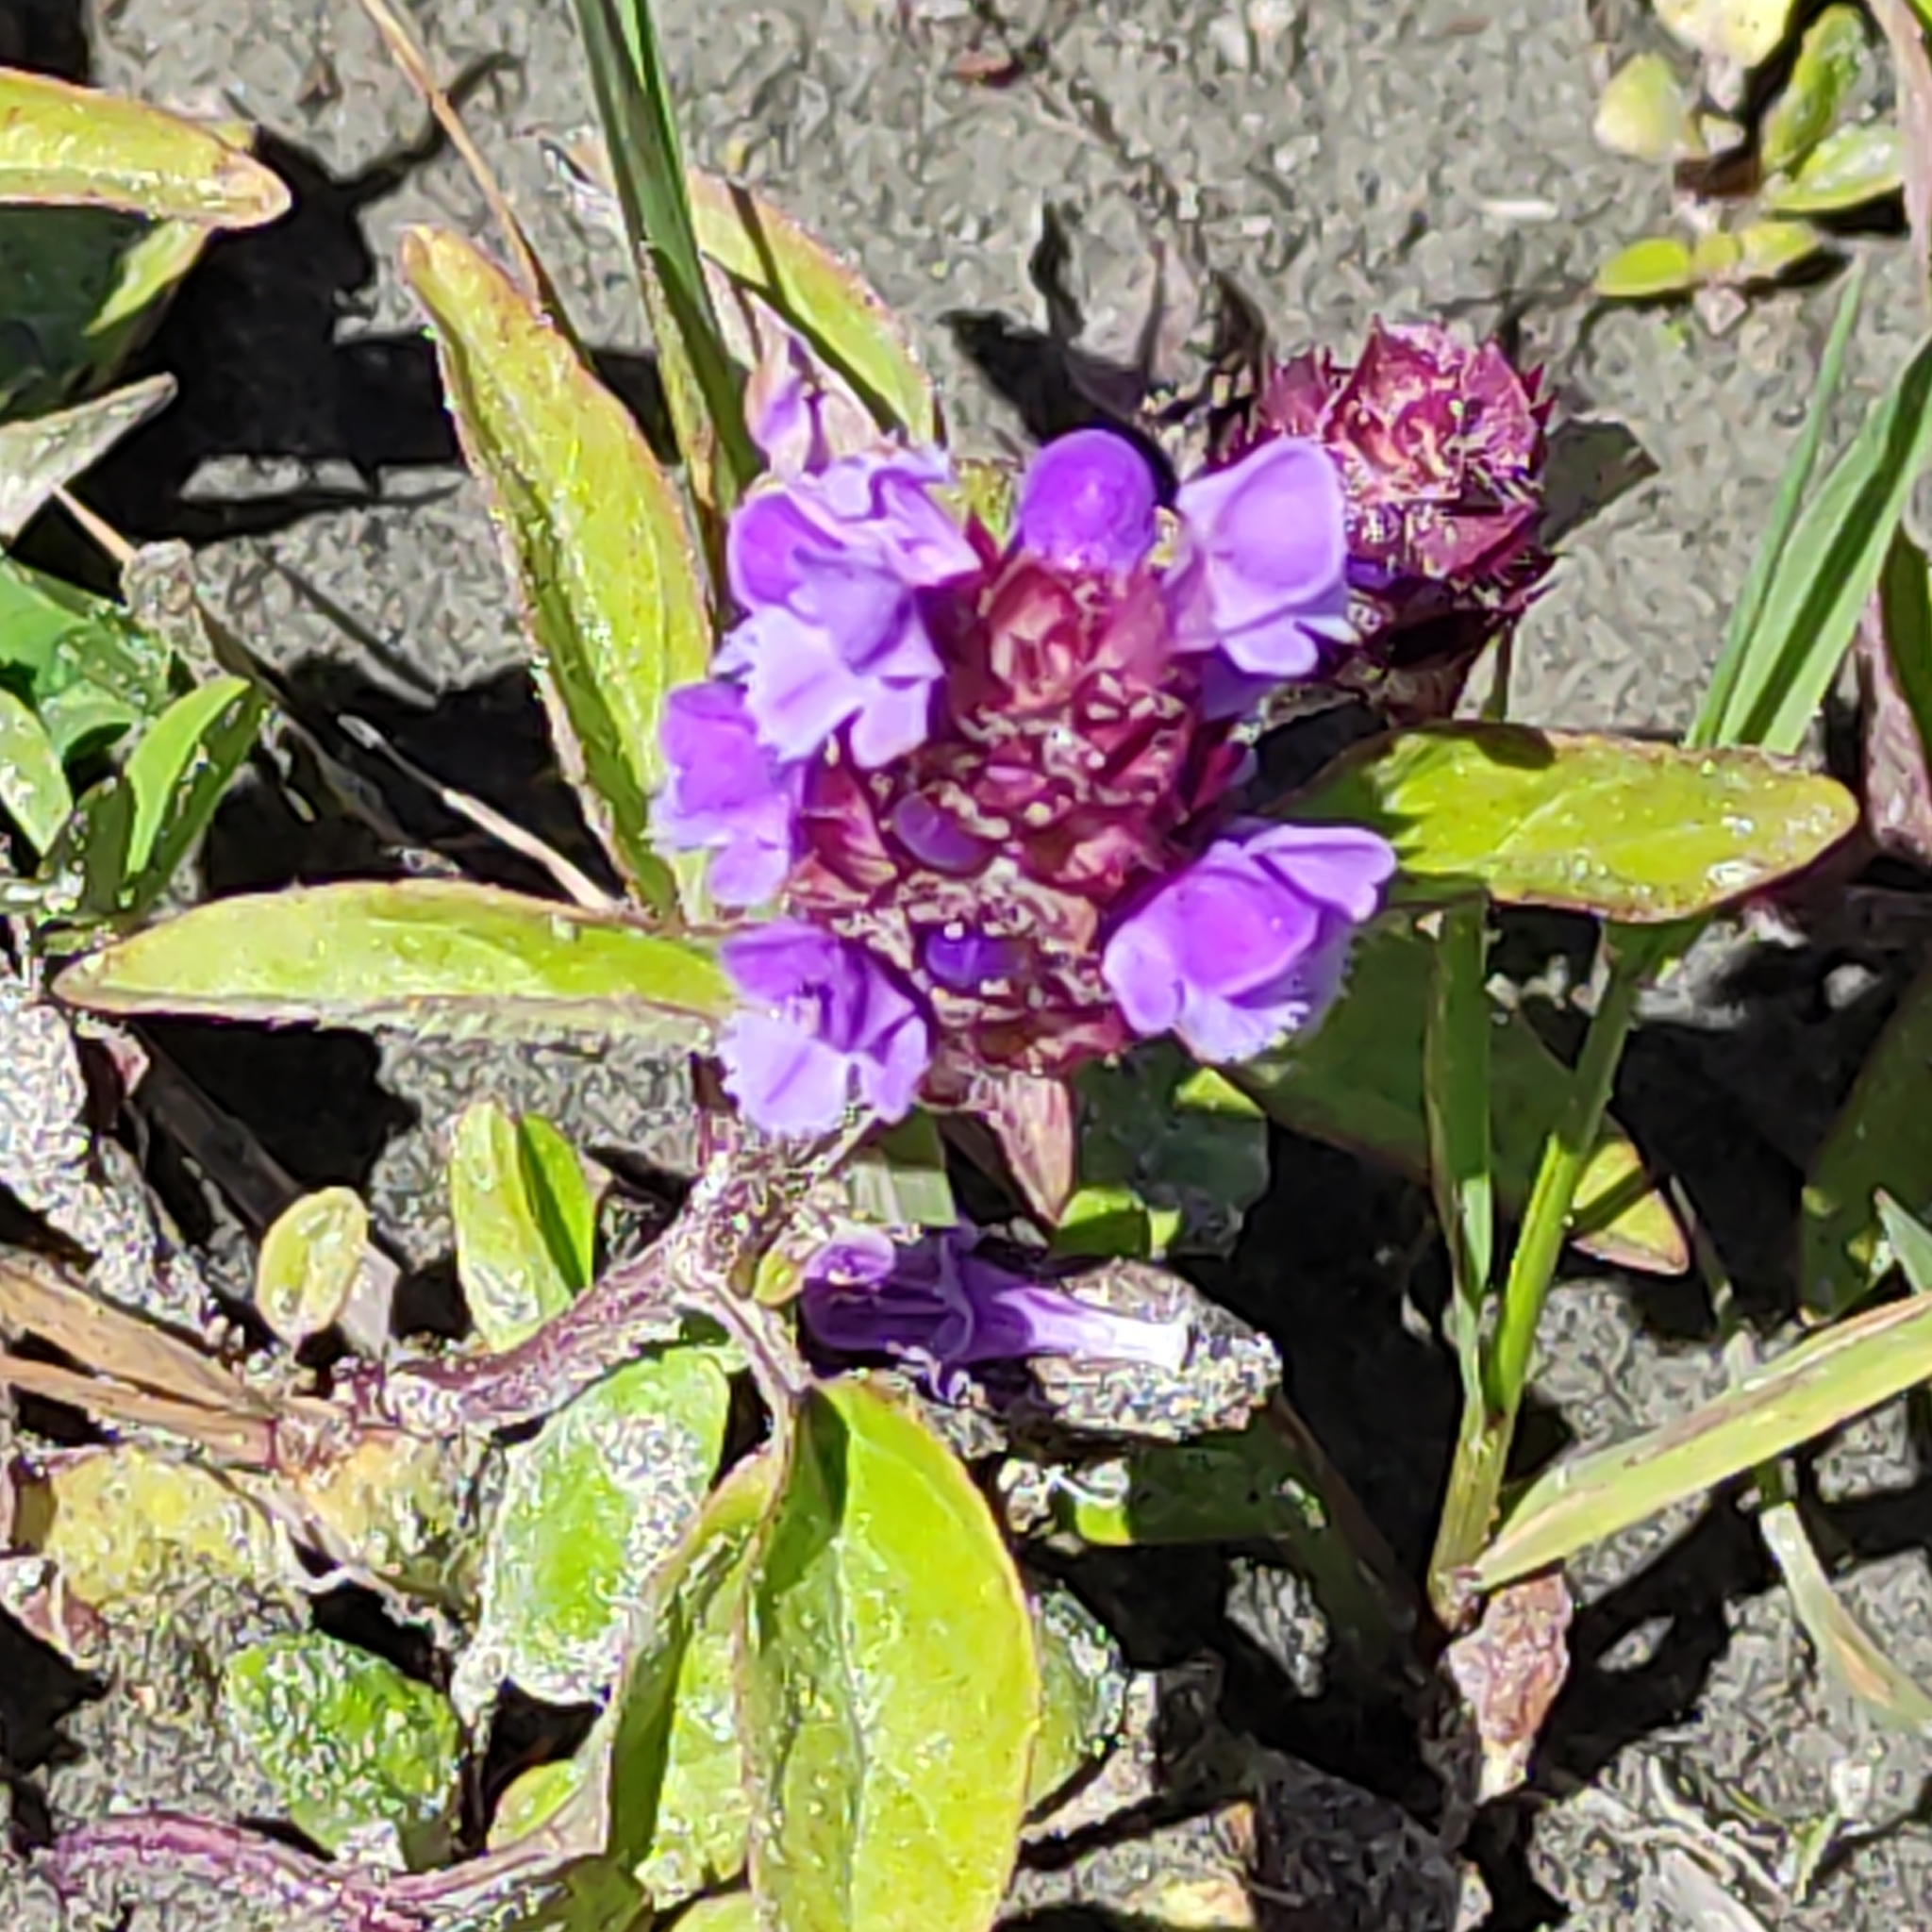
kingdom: Plantae
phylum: Tracheophyta
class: Magnoliopsida
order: Lamiales
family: Lamiaceae
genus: Prunella
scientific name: Prunella vulgaris
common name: Heal-all
